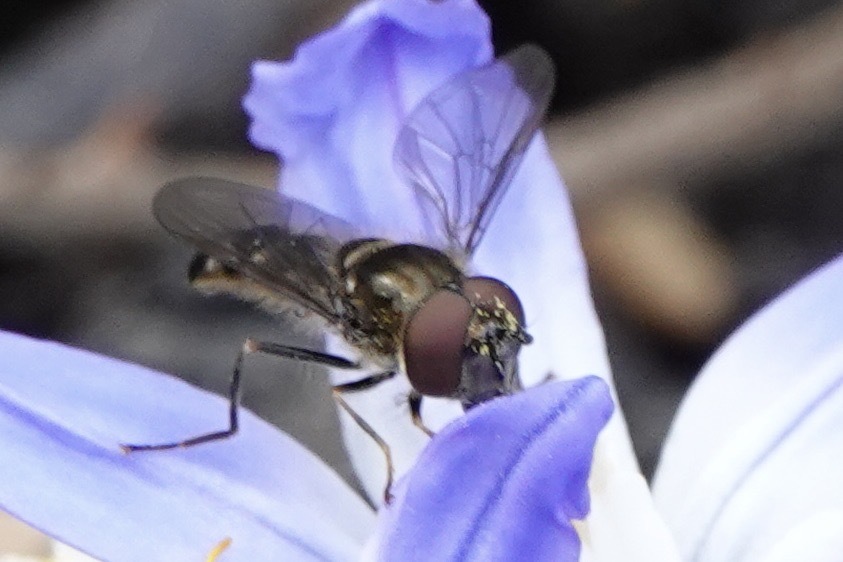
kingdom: Animalia
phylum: Arthropoda
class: Insecta
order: Diptera
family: Syrphidae
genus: Platycheirus
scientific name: Platycheirus albimanus
